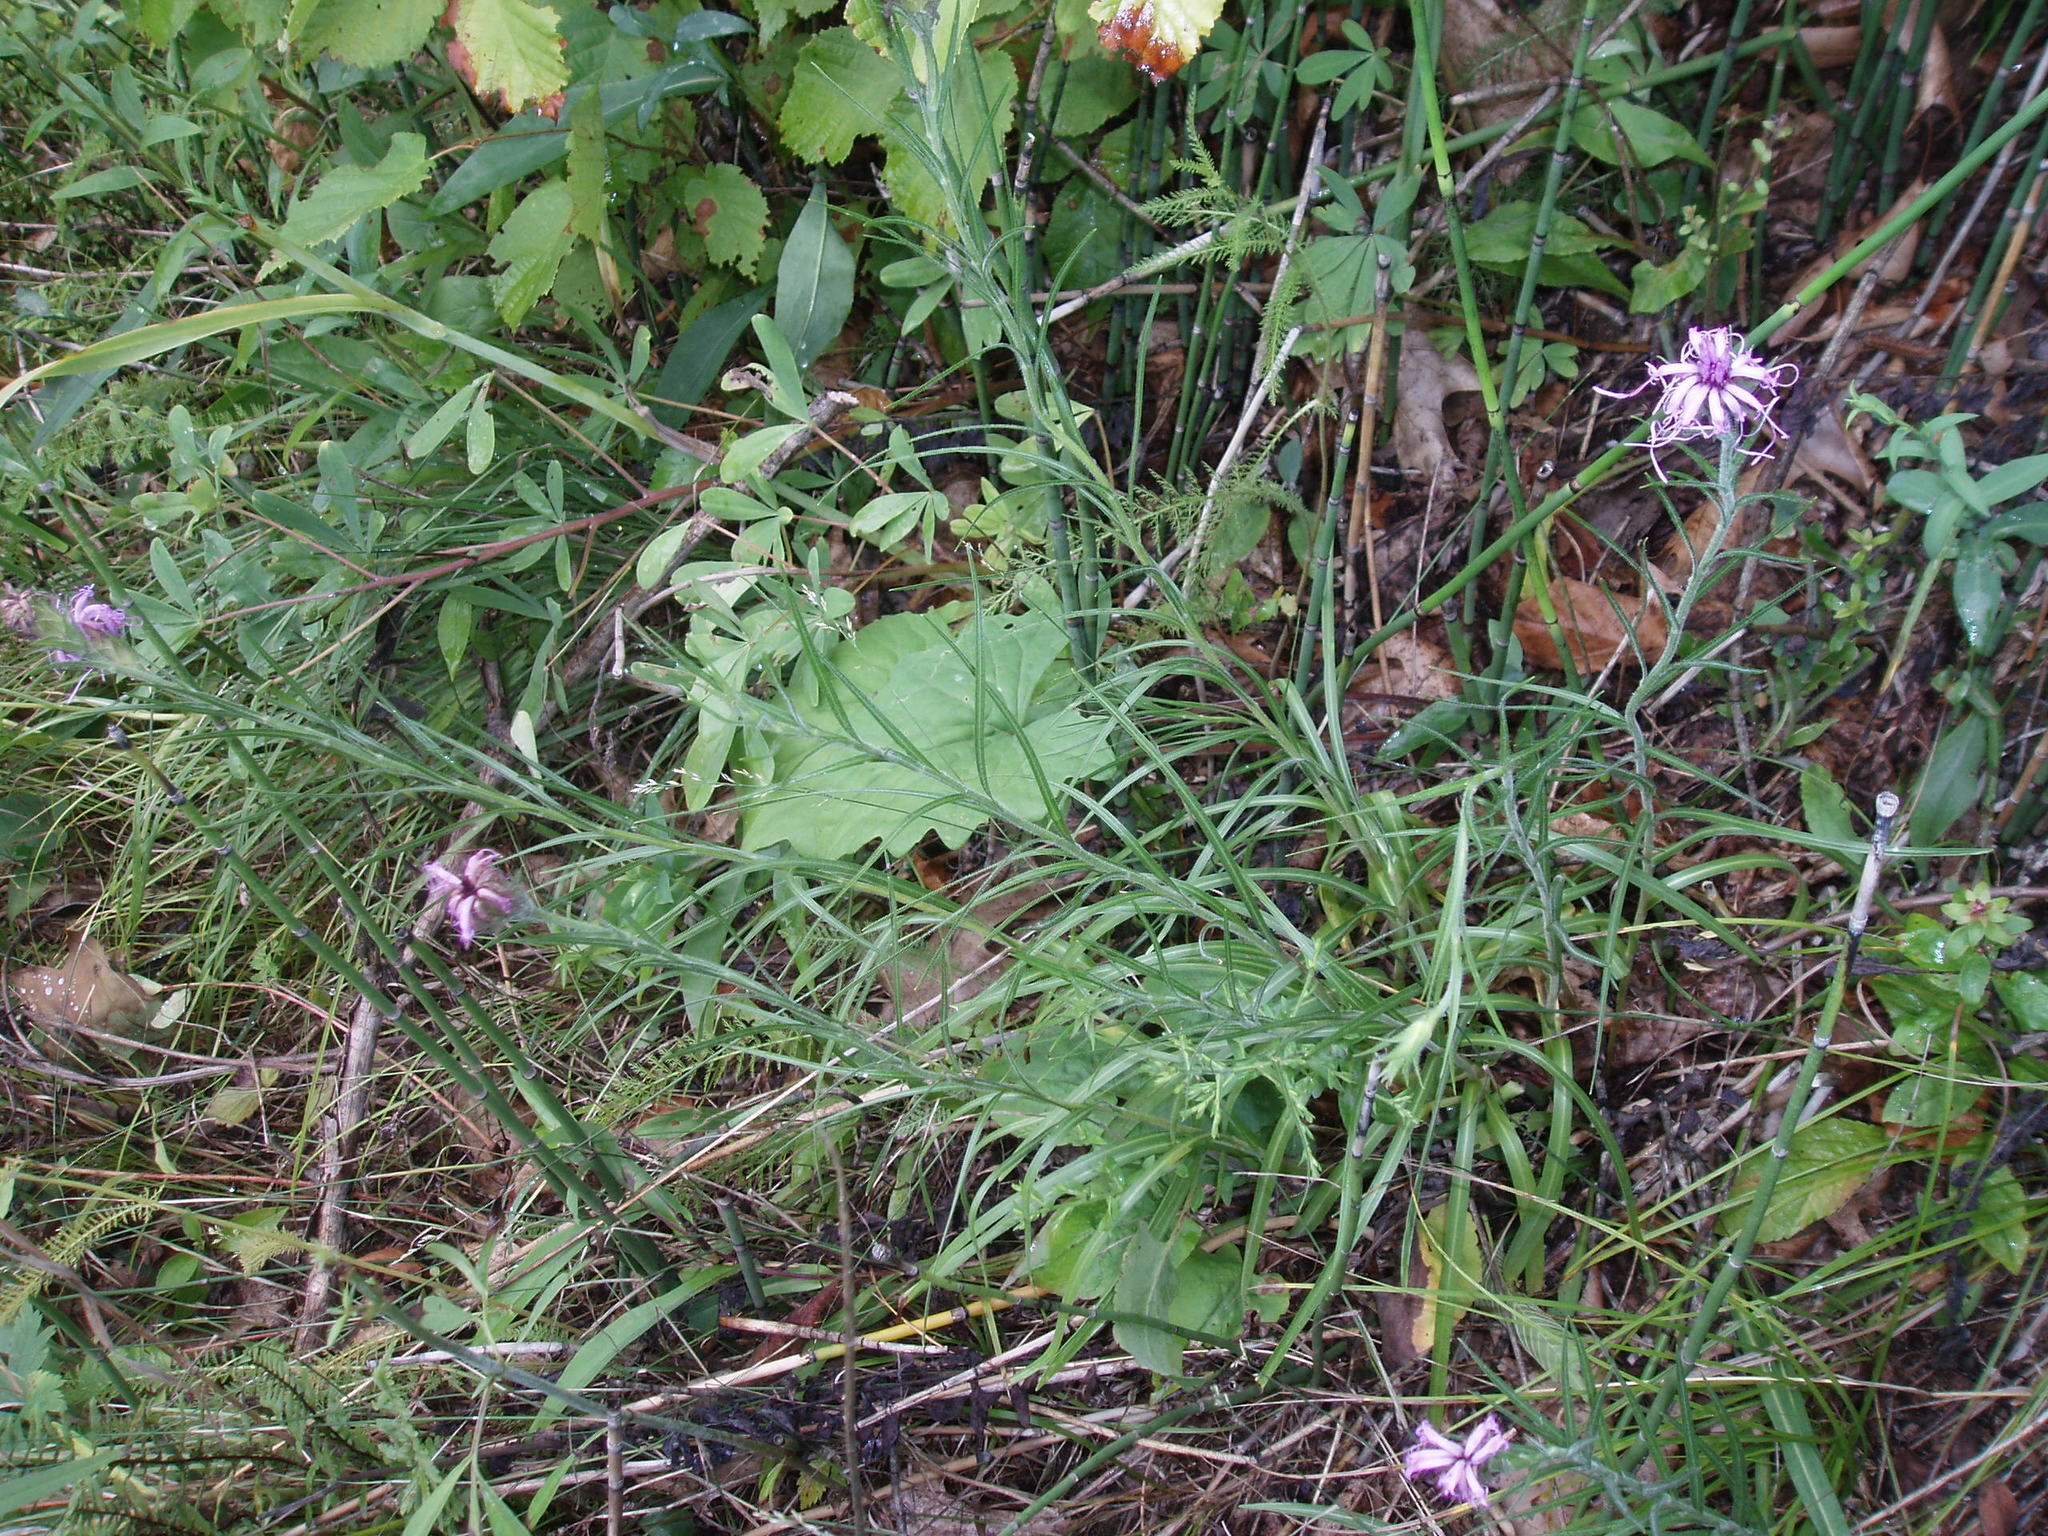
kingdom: Plantae
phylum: Tracheophyta
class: Magnoliopsida
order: Asterales
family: Asteraceae
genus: Liatris
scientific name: Liatris squarrosa
